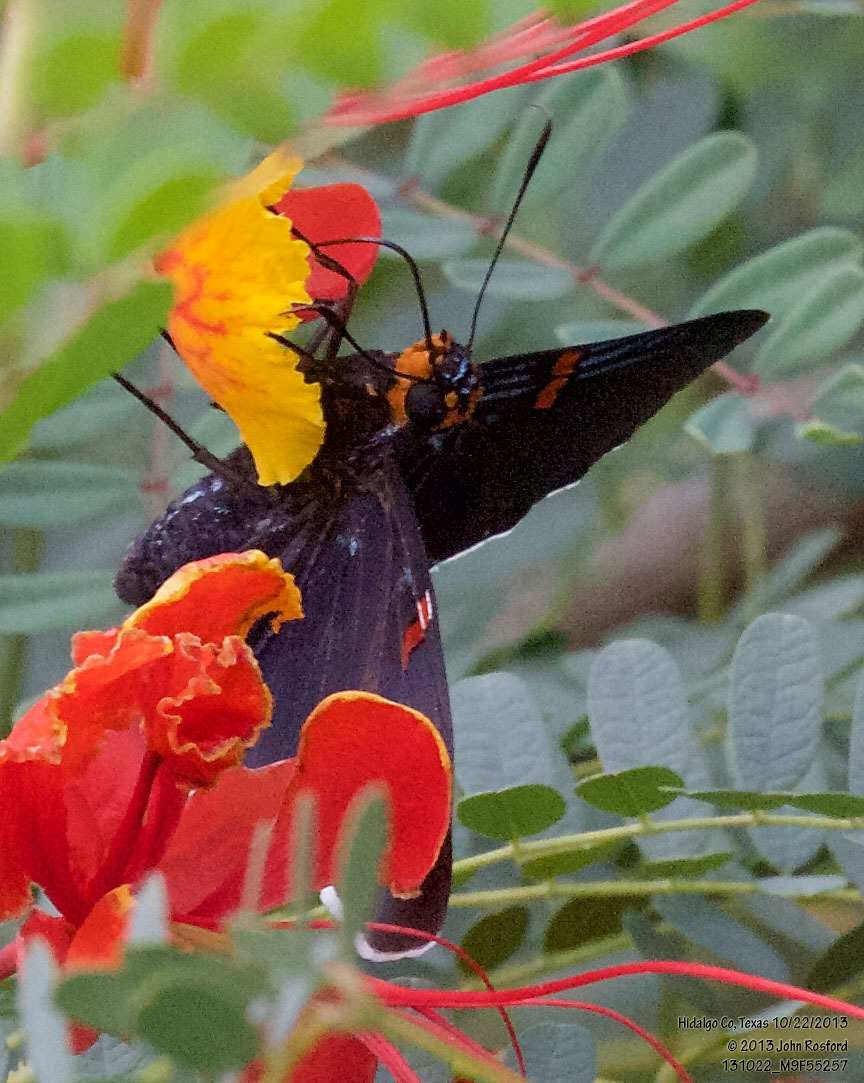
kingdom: Animalia
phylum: Arthropoda
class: Insecta
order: Lepidoptera
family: Hesperiidae
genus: Phocides
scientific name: Phocides lilea
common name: Guava skipper
